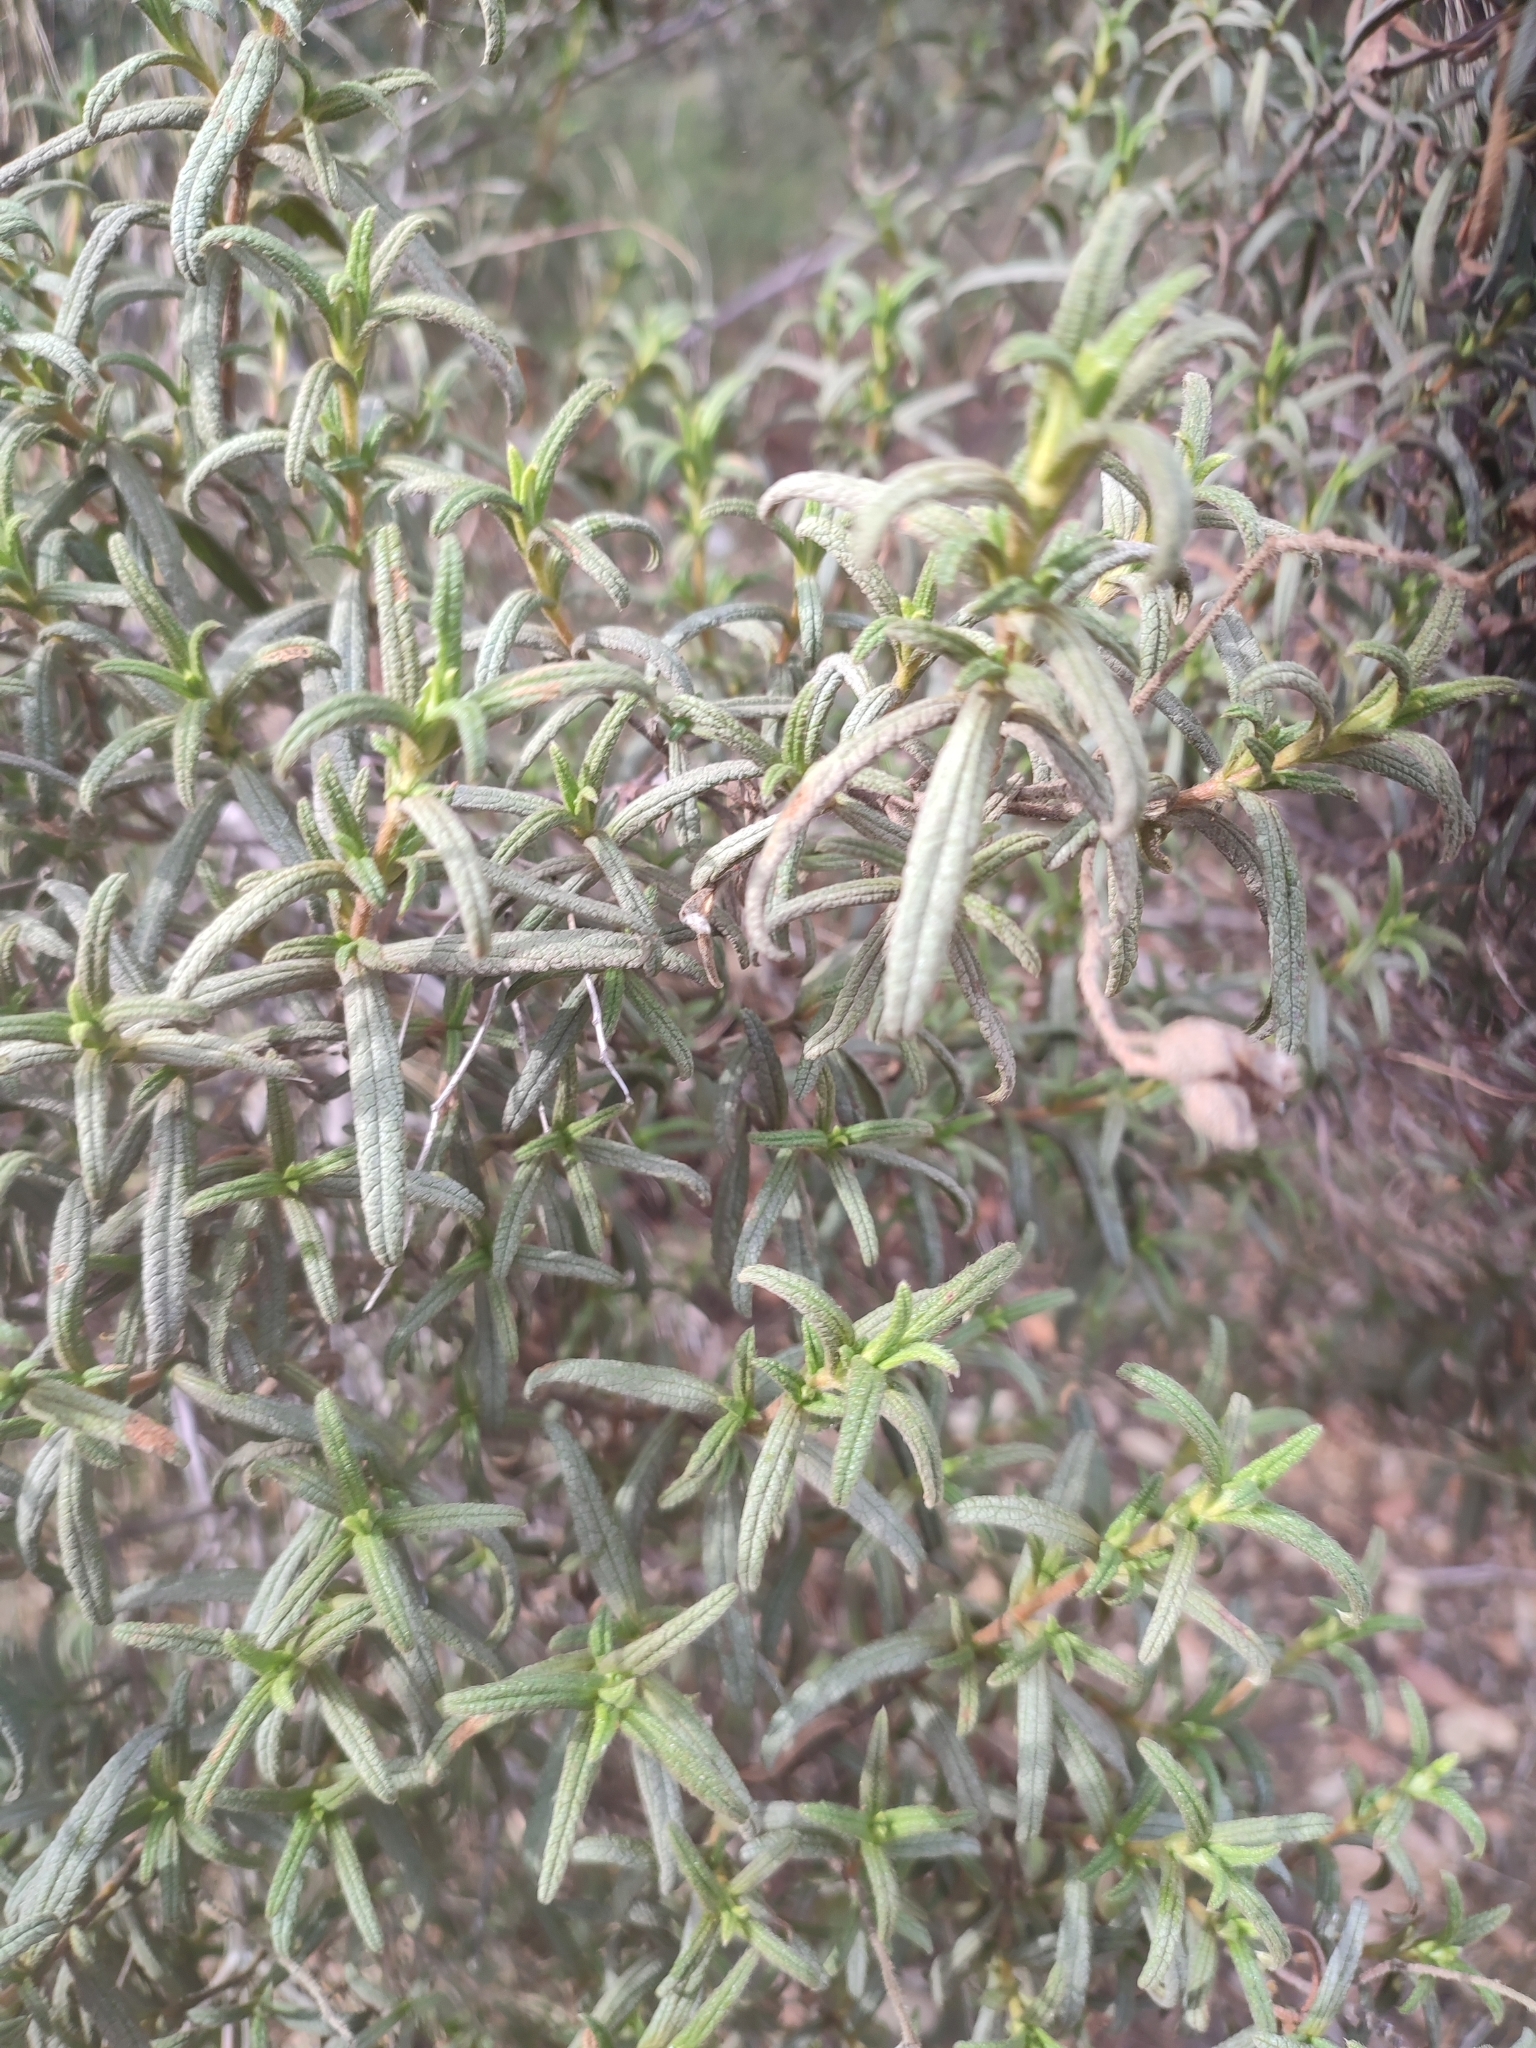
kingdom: Plantae
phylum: Tracheophyta
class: Magnoliopsida
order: Malvales
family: Cistaceae
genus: Cistus
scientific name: Cistus monspeliensis
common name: Montpelier cistus
